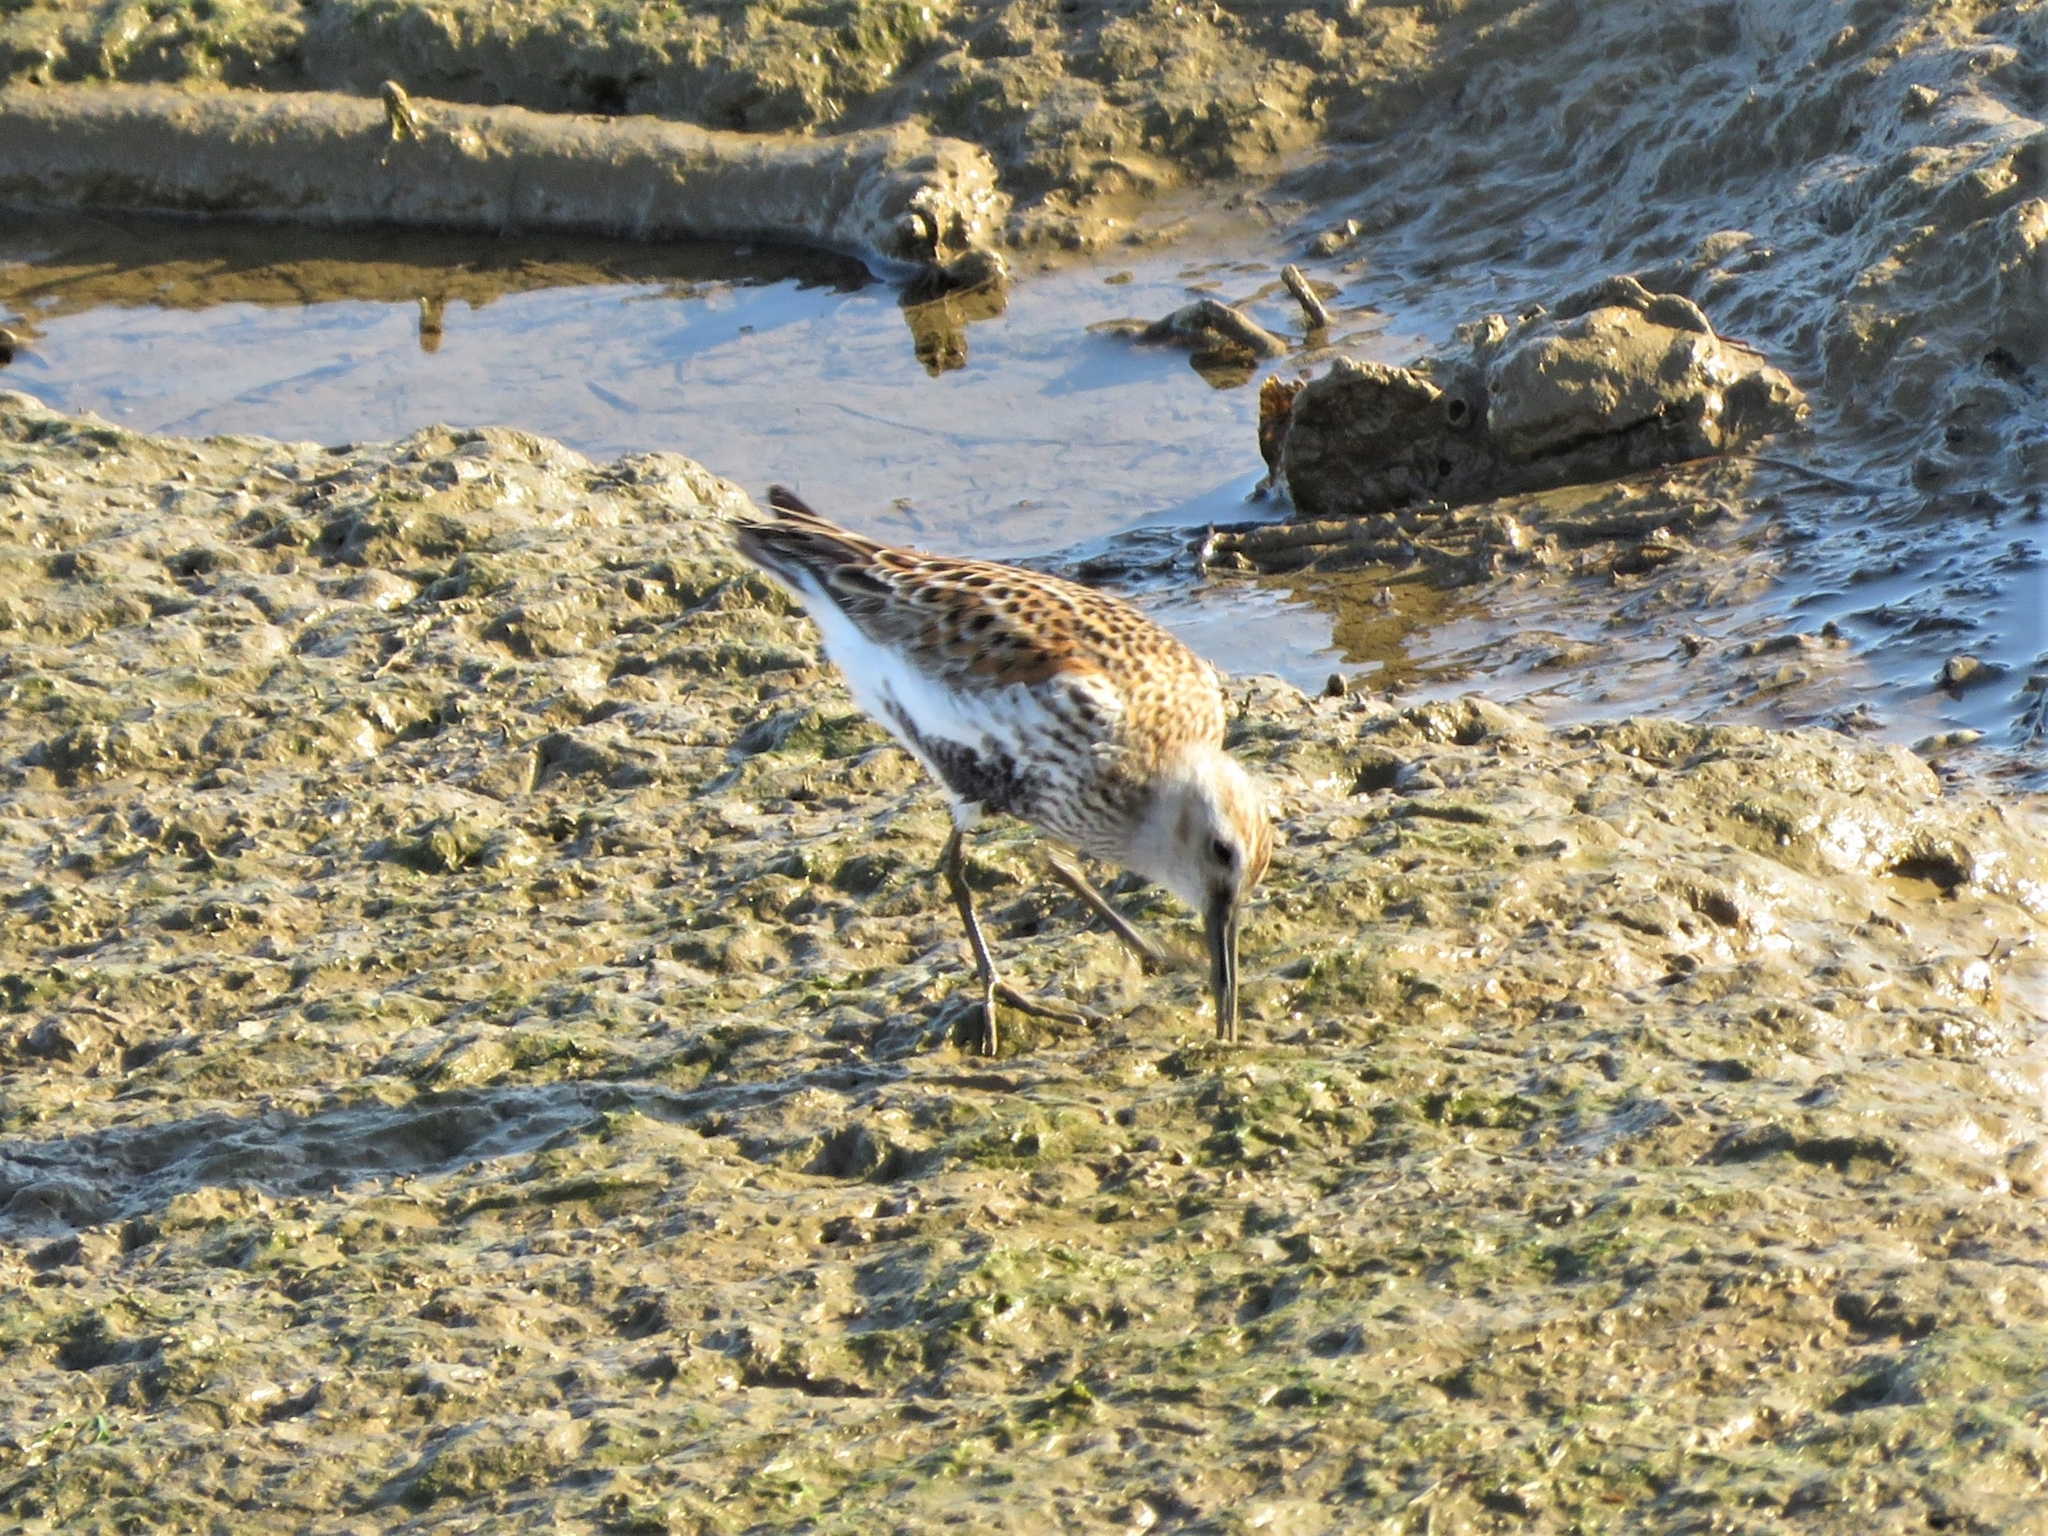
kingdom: Animalia
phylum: Chordata
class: Aves
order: Charadriiformes
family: Scolopacidae
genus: Calidris
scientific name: Calidris alpina
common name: Dunlin
